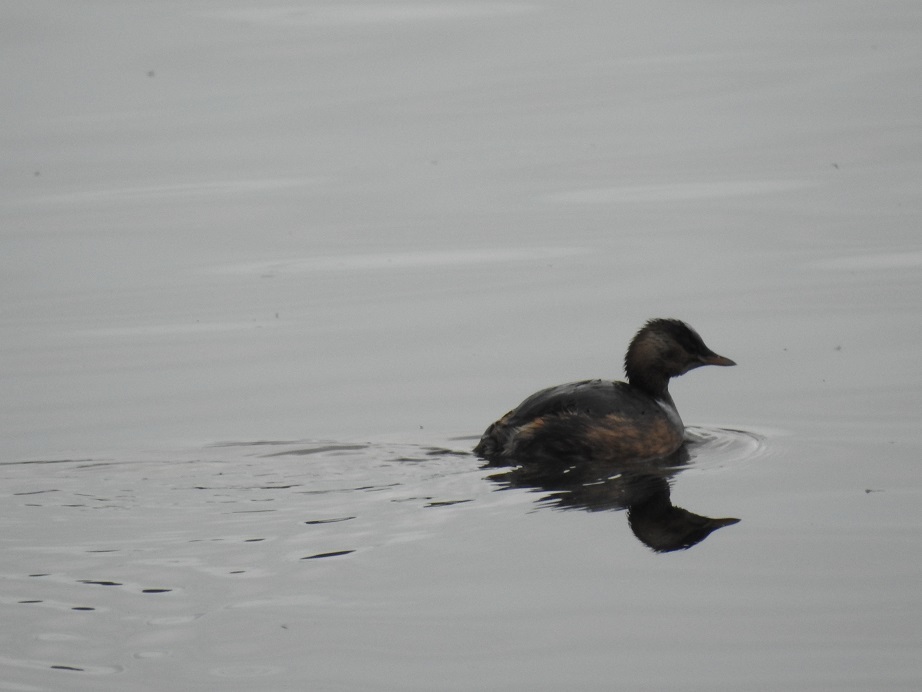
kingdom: Animalia
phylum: Chordata
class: Aves
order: Podicipediformes
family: Podicipedidae
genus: Tachybaptus
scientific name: Tachybaptus ruficollis
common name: Little grebe
